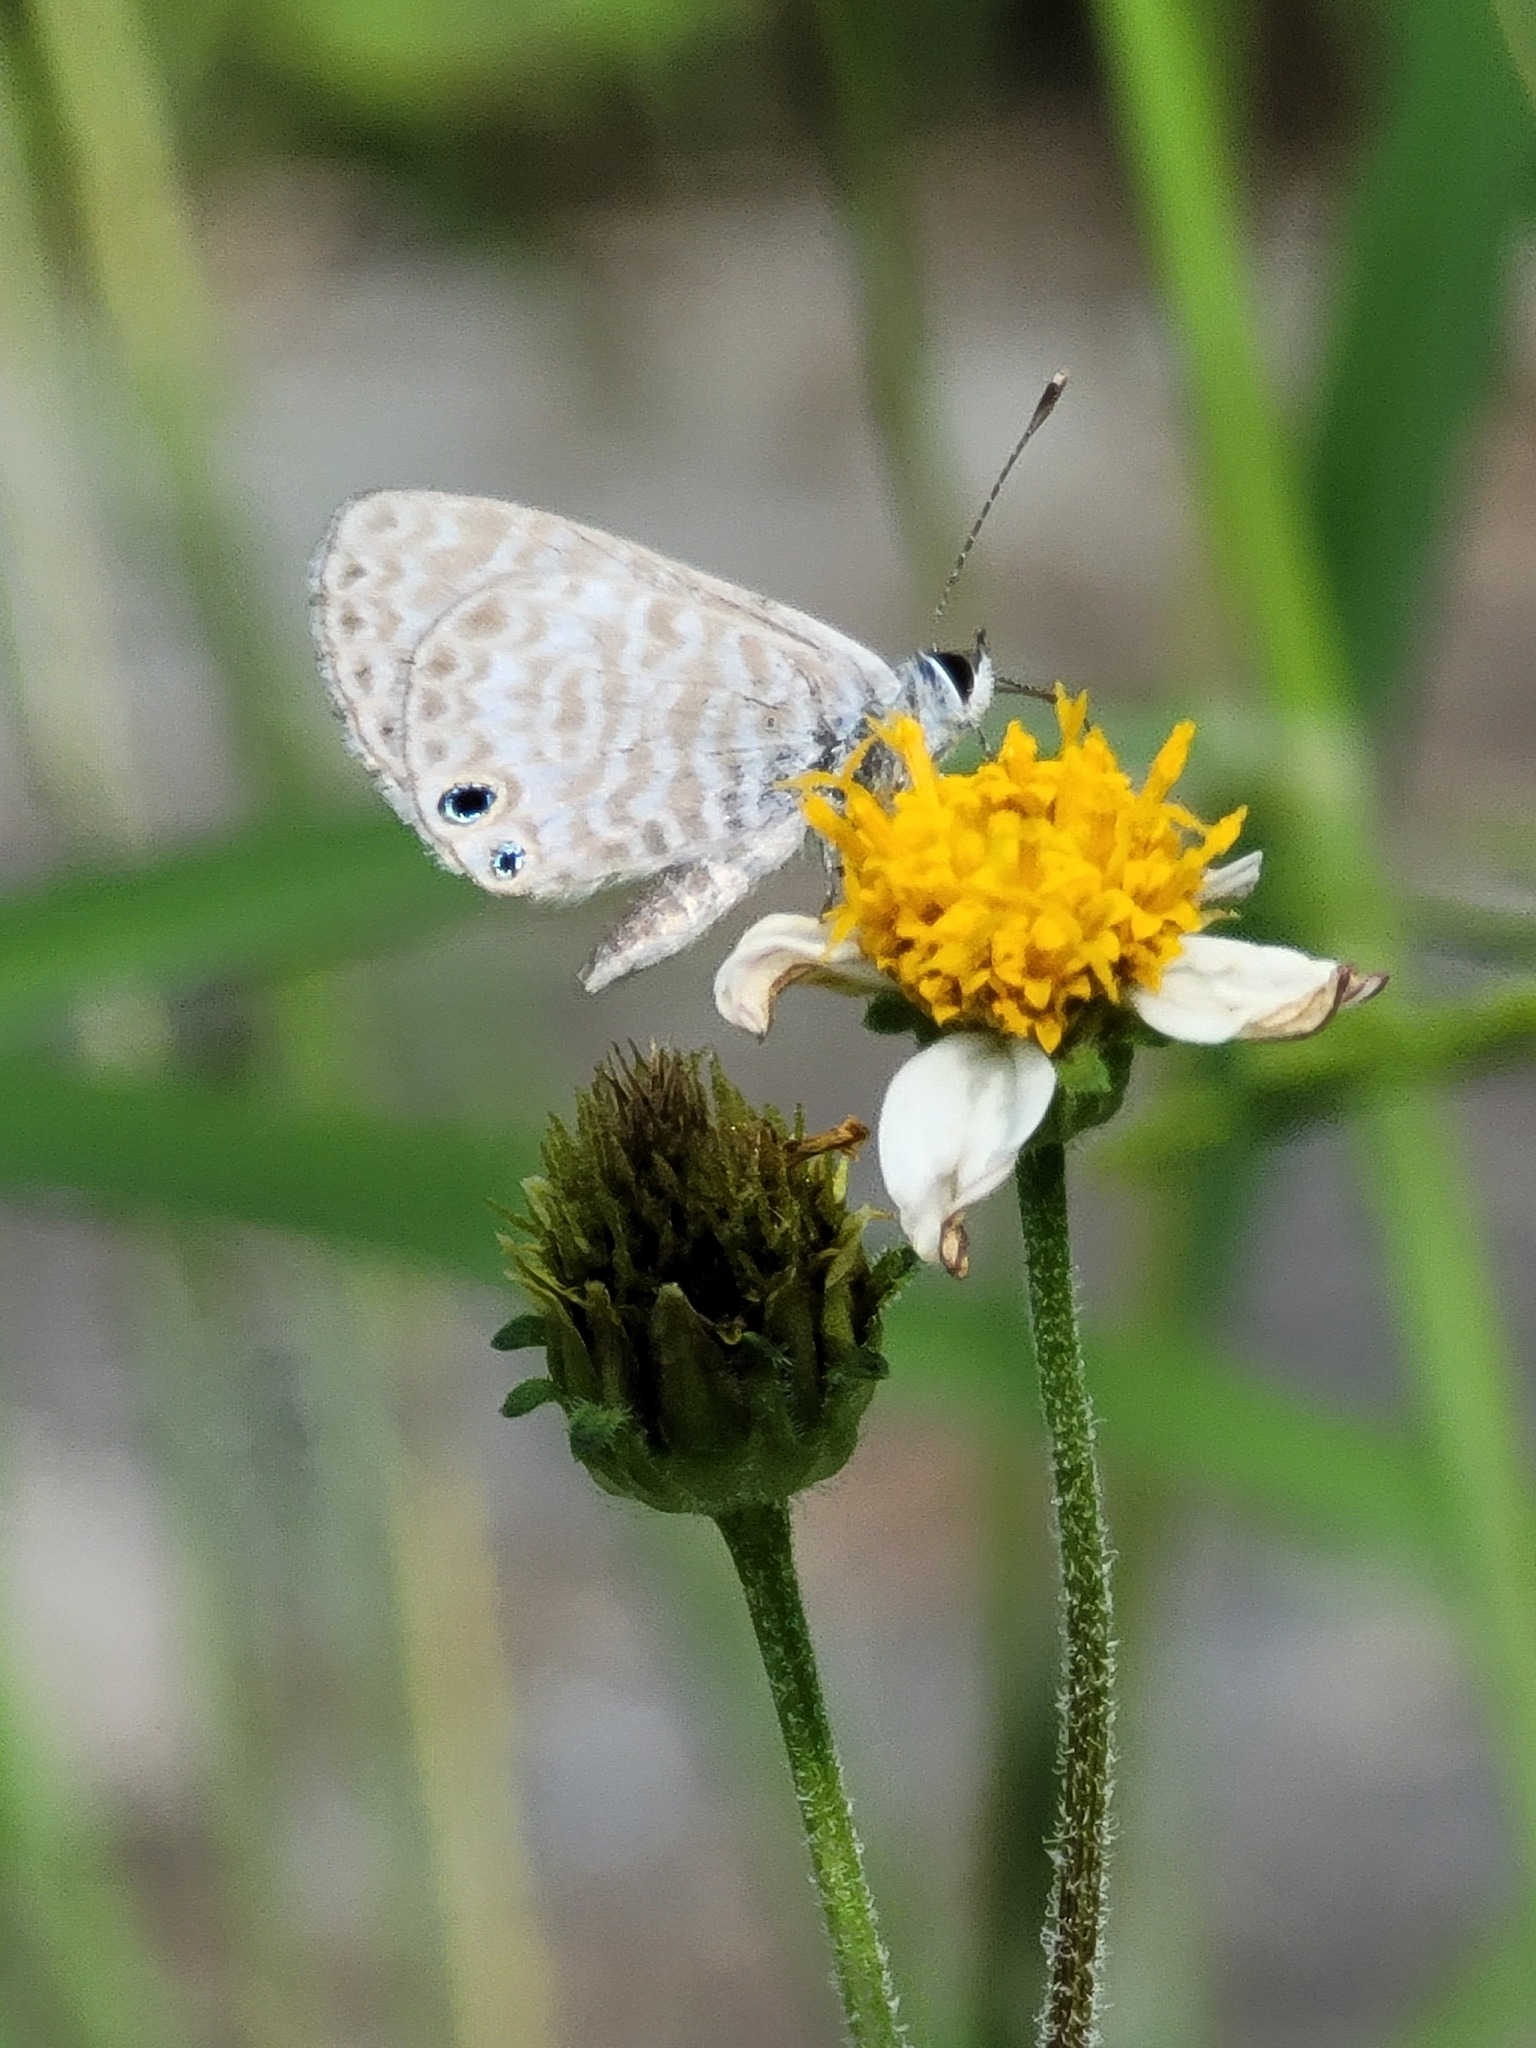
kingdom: Animalia
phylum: Arthropoda
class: Insecta
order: Lepidoptera
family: Lycaenidae
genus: Leptotes
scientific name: Leptotes marina
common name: Marine blue
